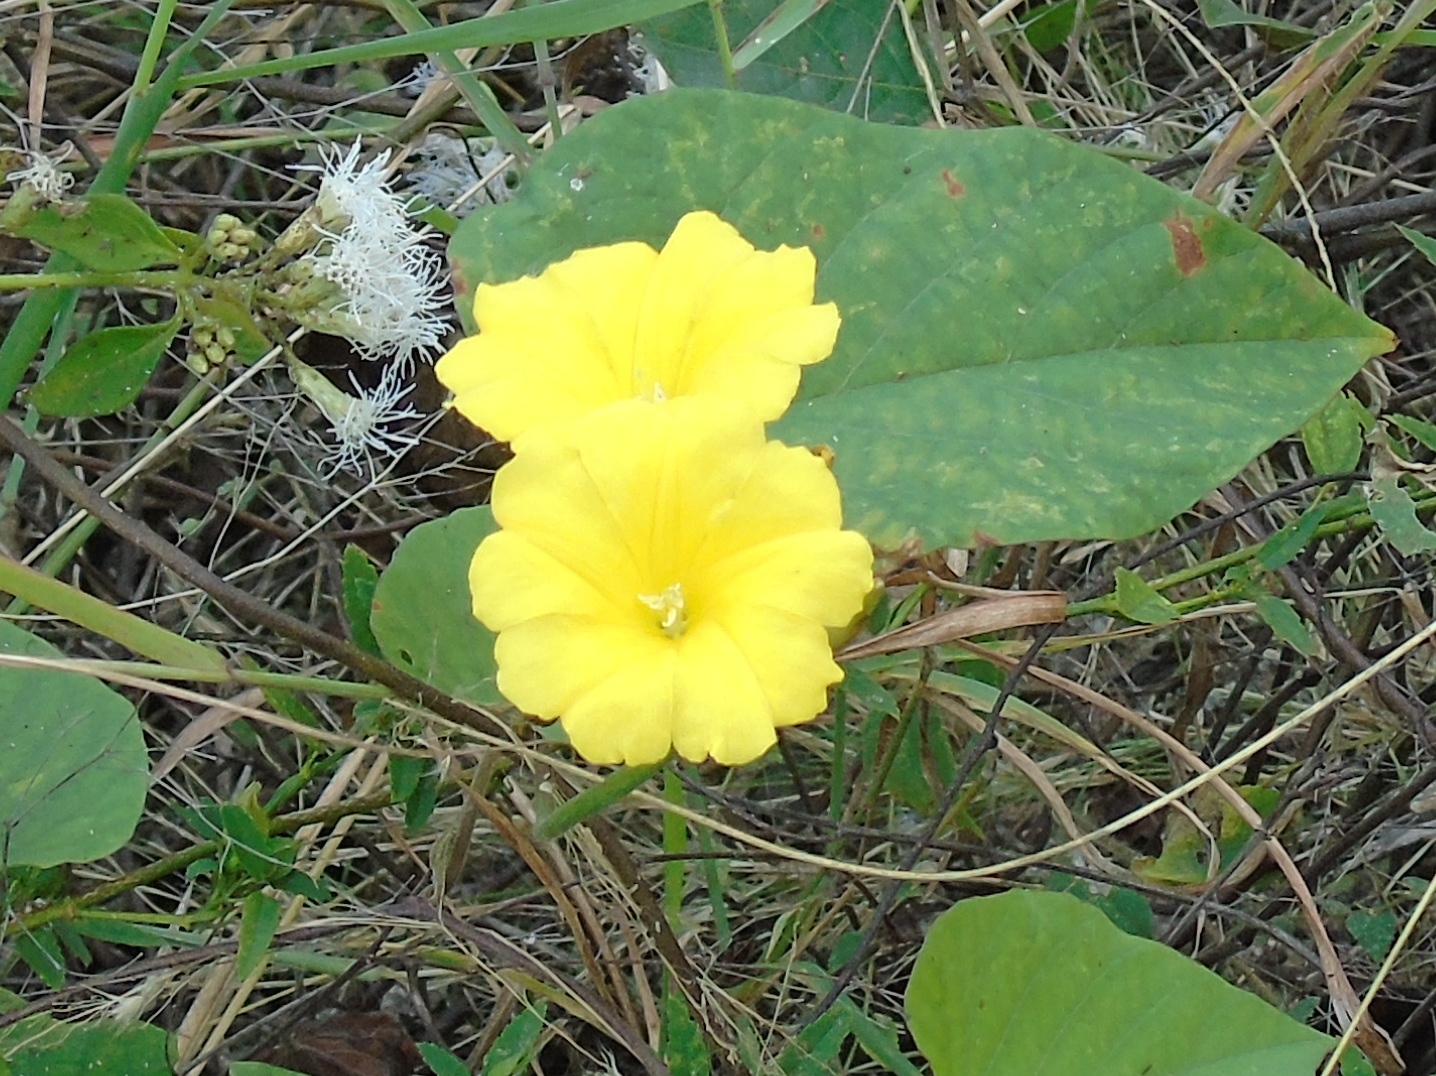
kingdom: Plantae
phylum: Tracheophyta
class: Magnoliopsida
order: Solanales
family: Convolvulaceae
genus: Camonea
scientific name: Camonea umbellata
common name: Hogvine
